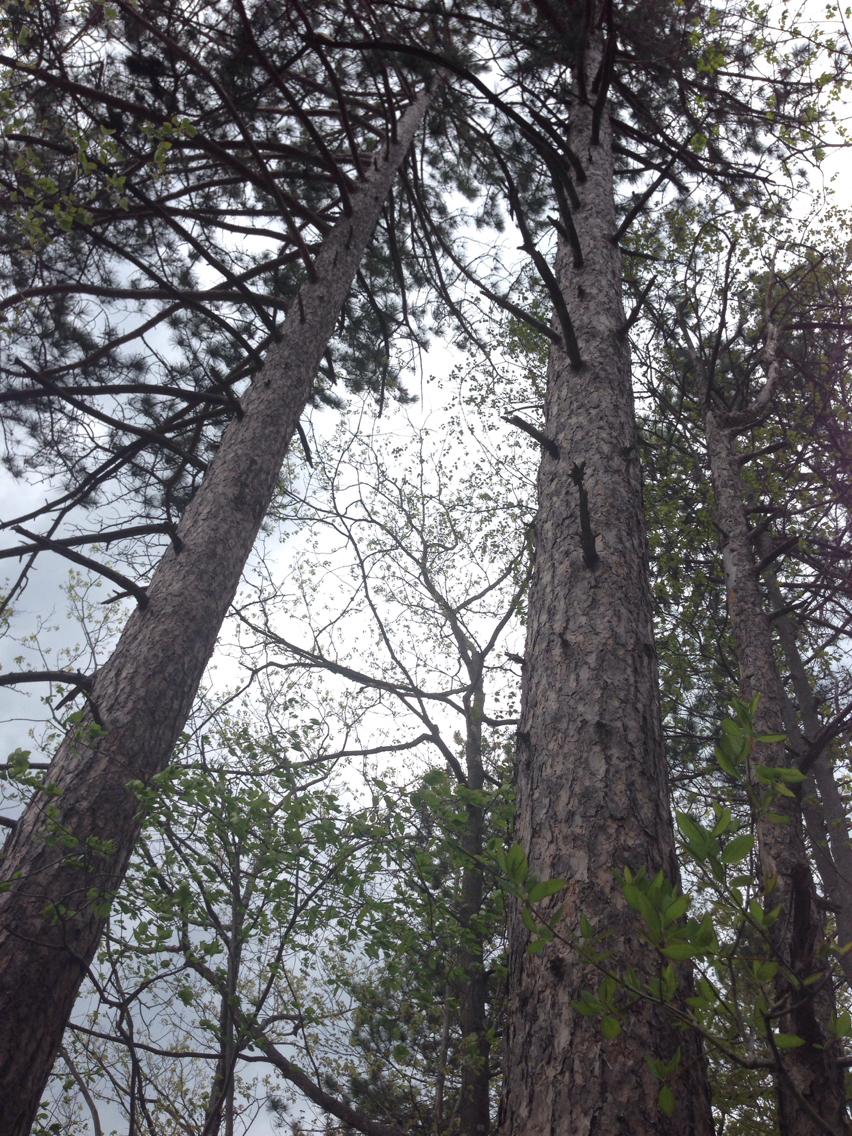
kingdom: Plantae
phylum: Tracheophyta
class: Pinopsida
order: Pinales
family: Pinaceae
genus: Pinus
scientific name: Pinus resinosa
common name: Norway pine
